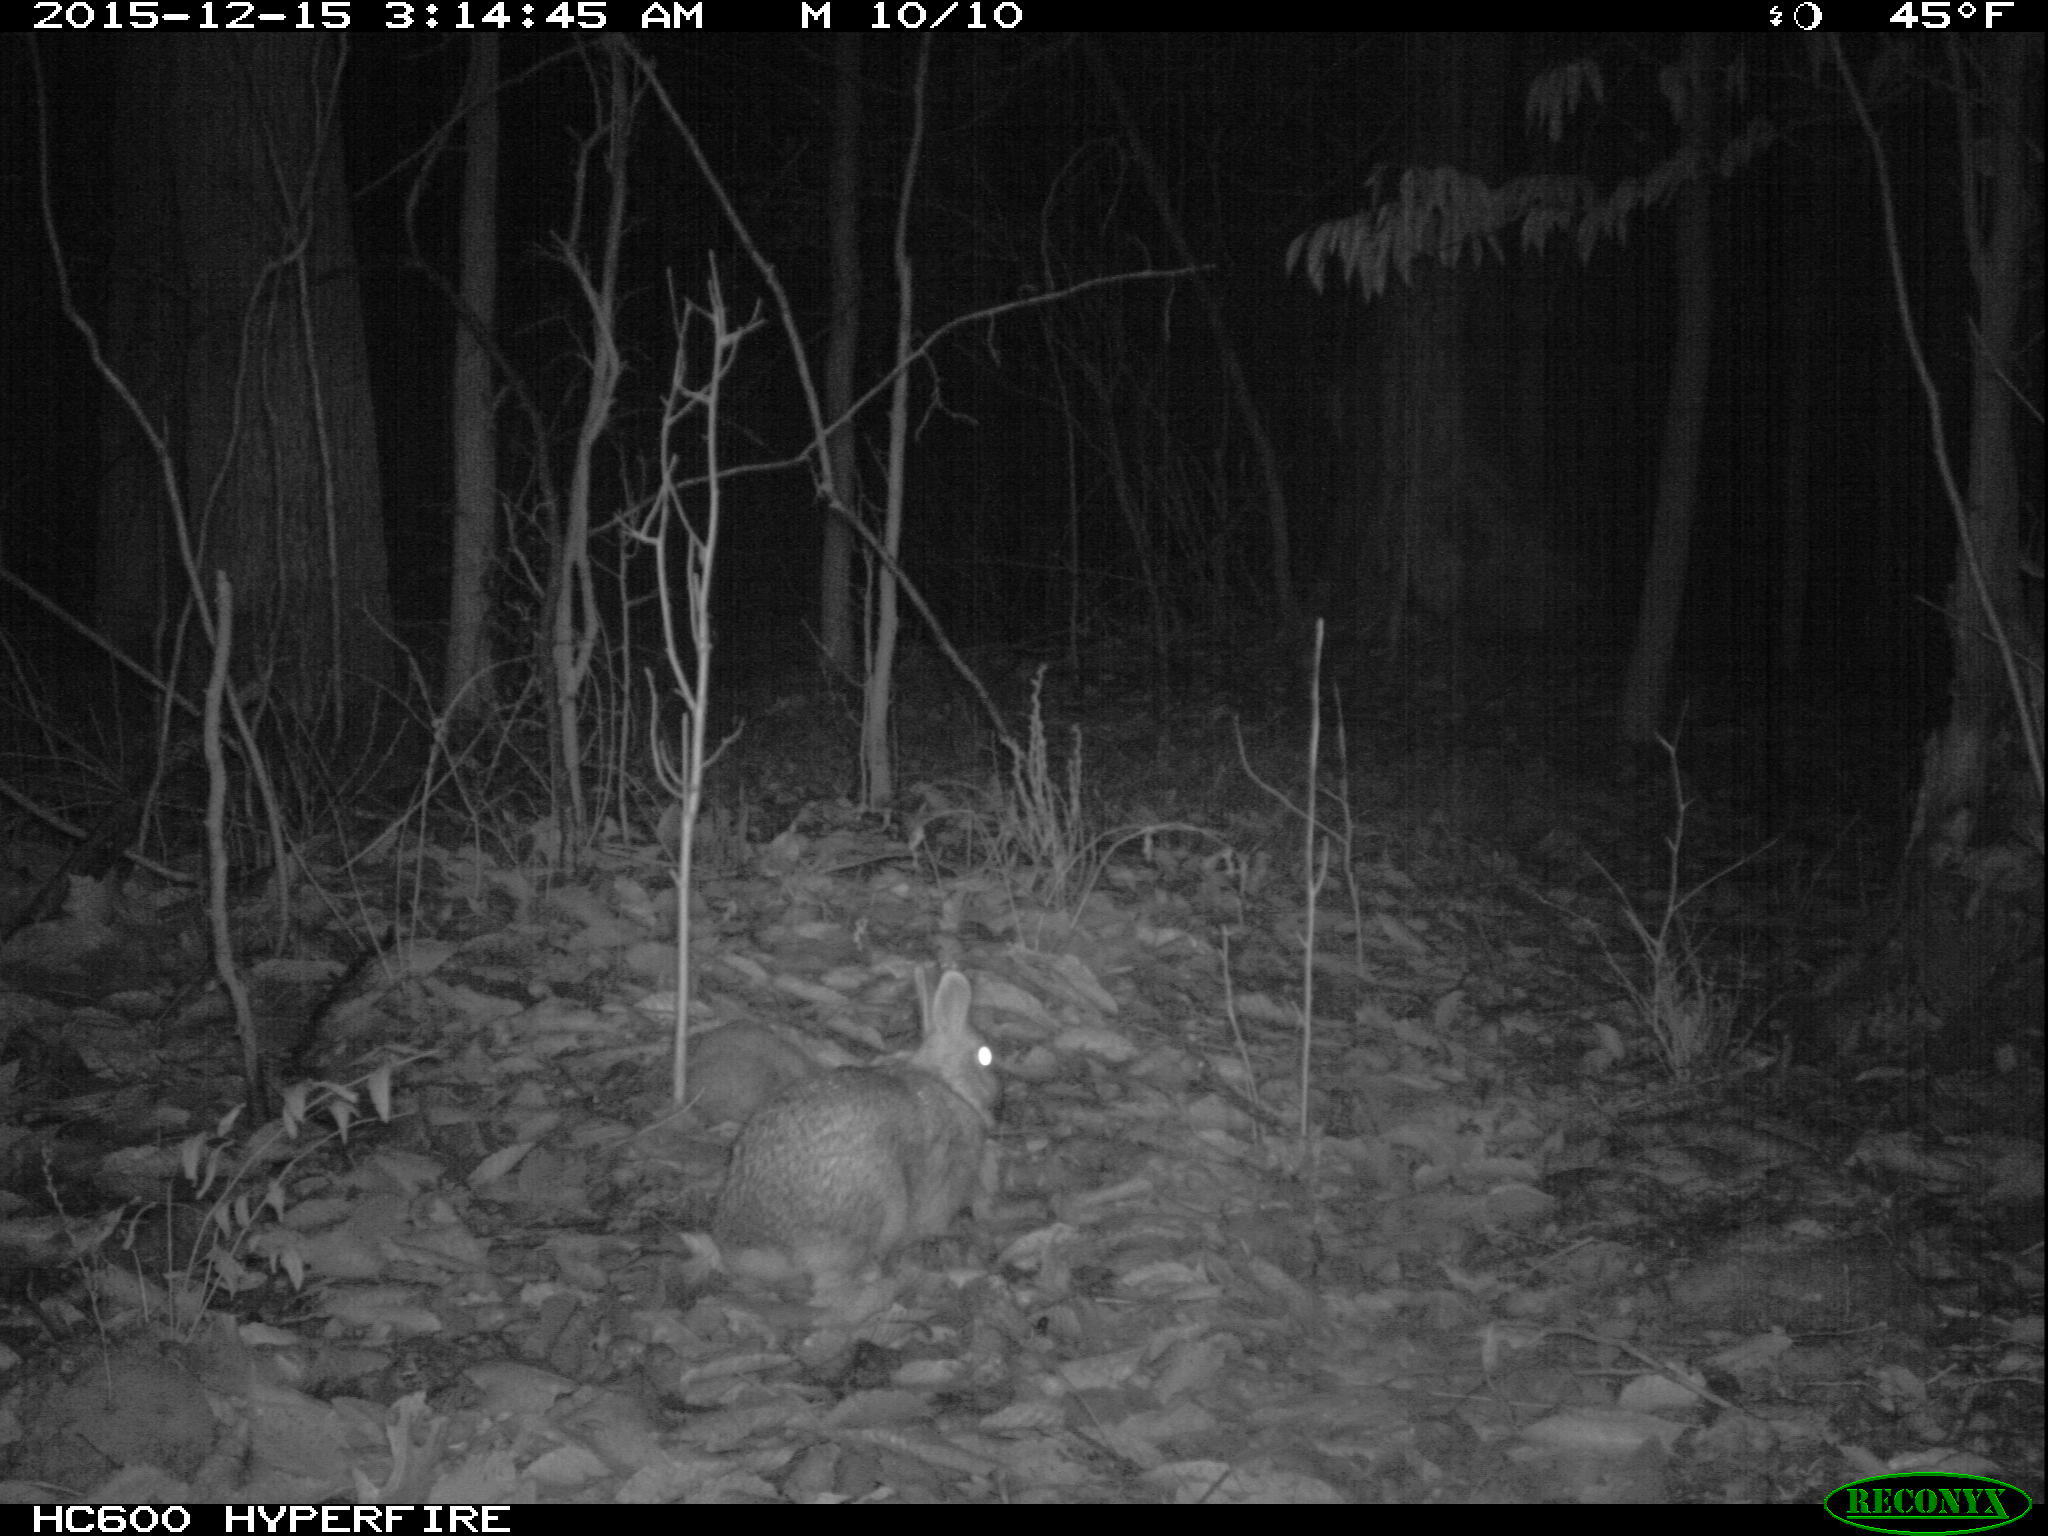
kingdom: Animalia
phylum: Chordata
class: Mammalia
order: Lagomorpha
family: Leporidae
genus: Sylvilagus
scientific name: Sylvilagus floridanus
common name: Eastern cottontail
